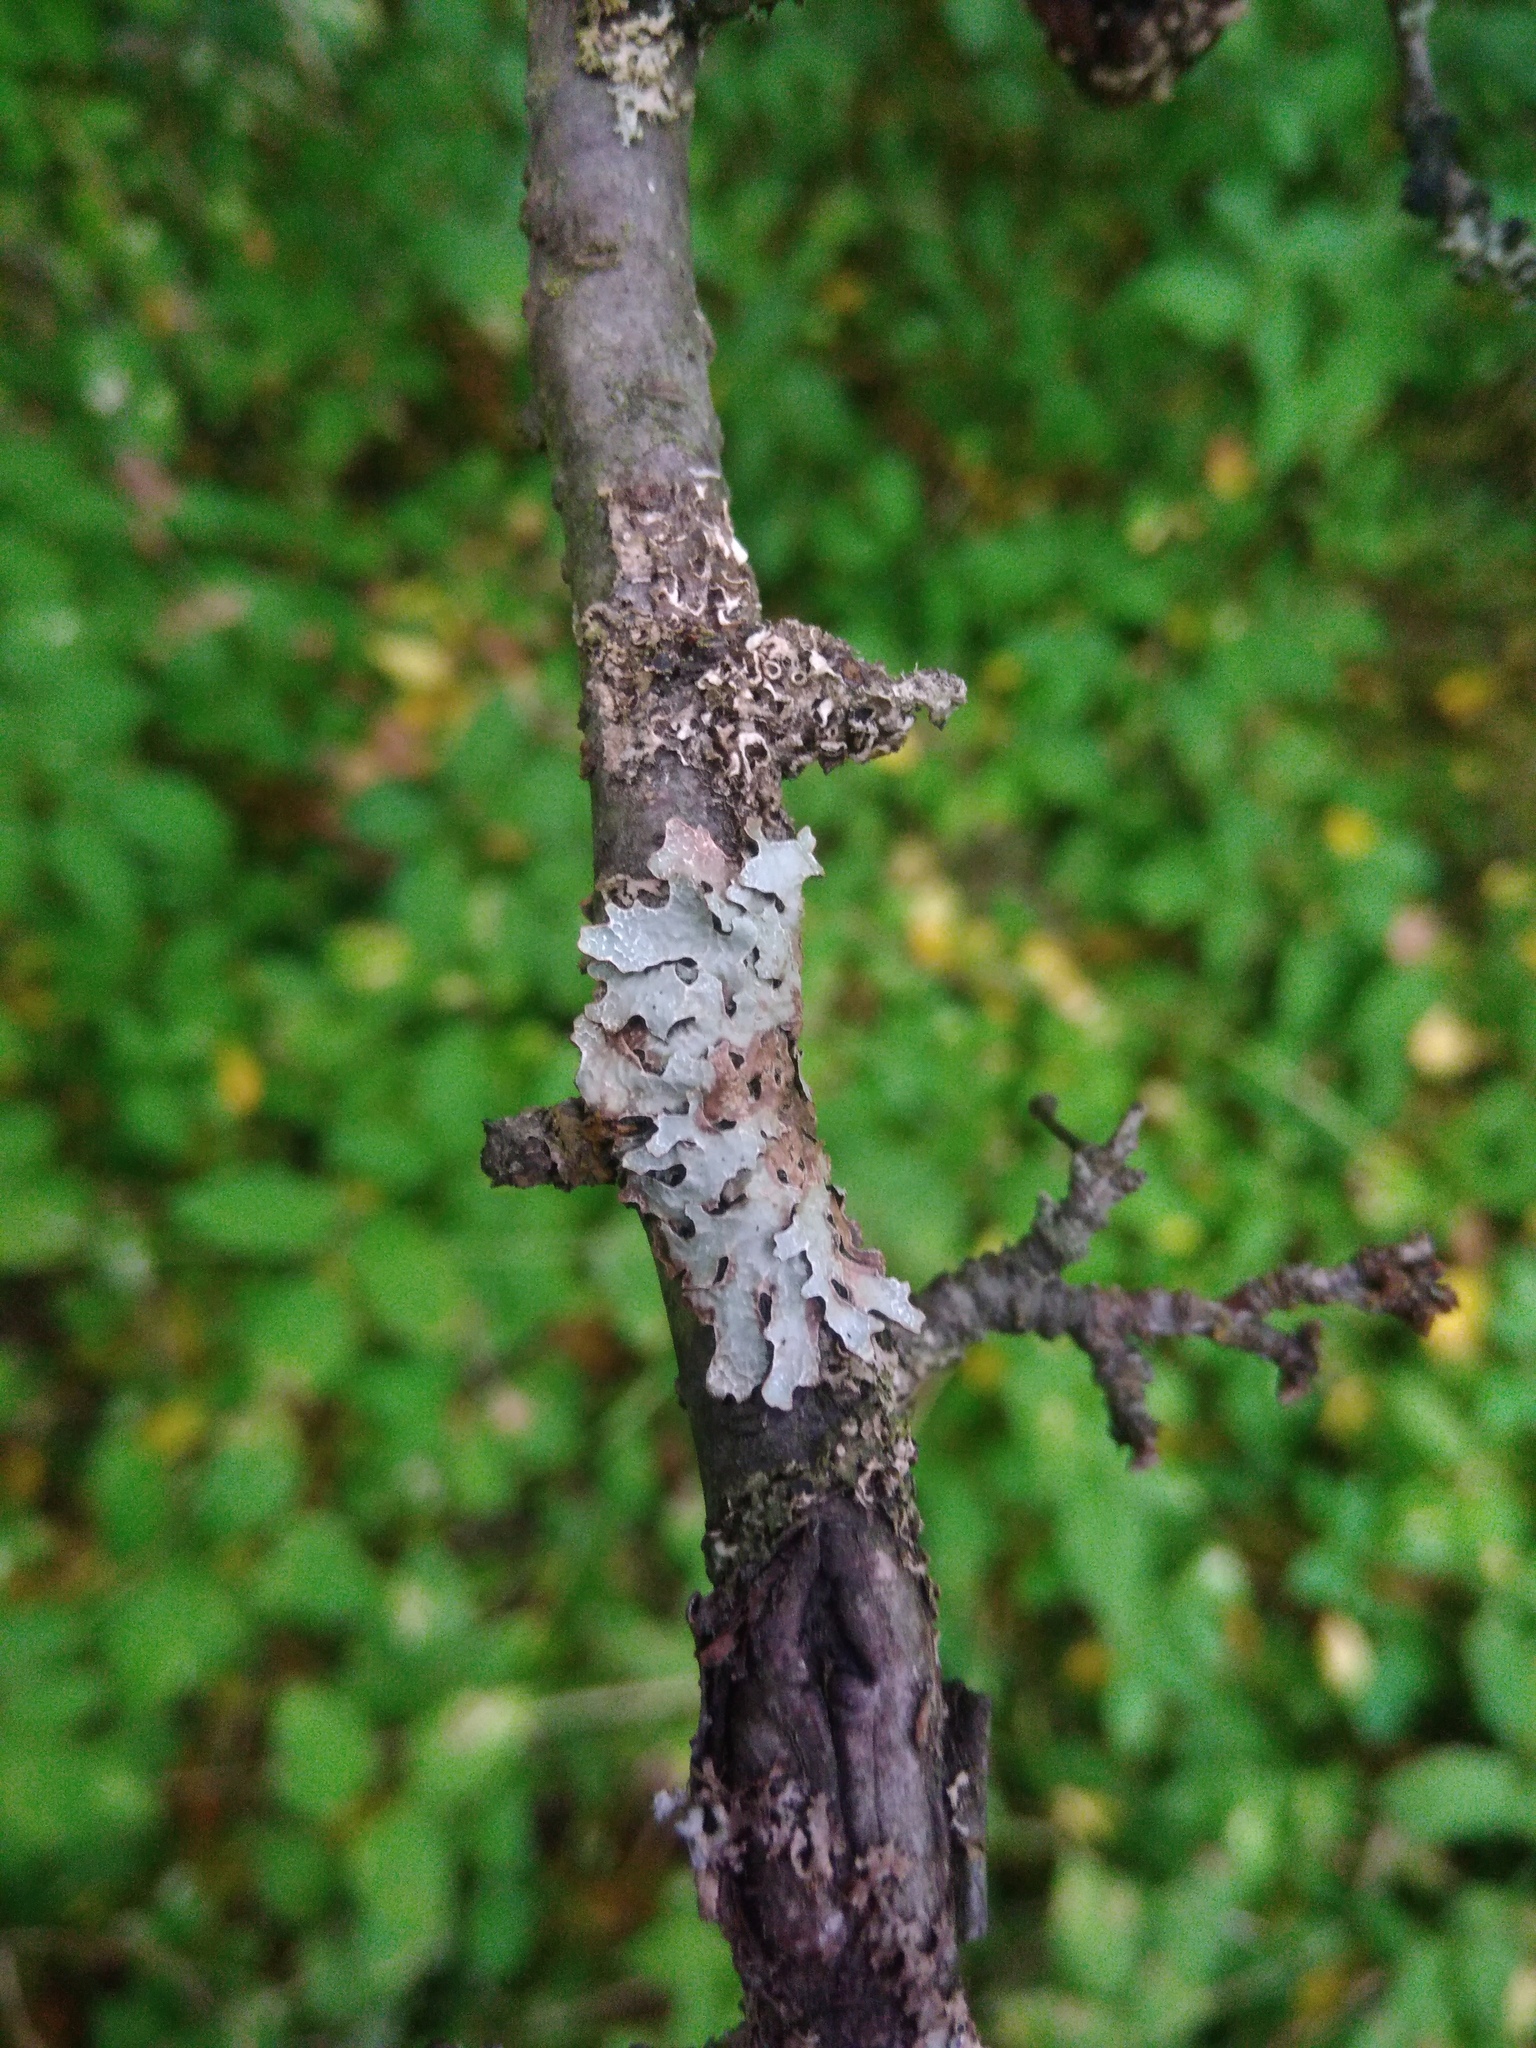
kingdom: Fungi
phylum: Ascomycota
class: Lecanoromycetes
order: Lecanorales
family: Parmeliaceae
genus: Parmelia
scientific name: Parmelia sulcata
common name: Netted shield lichen
